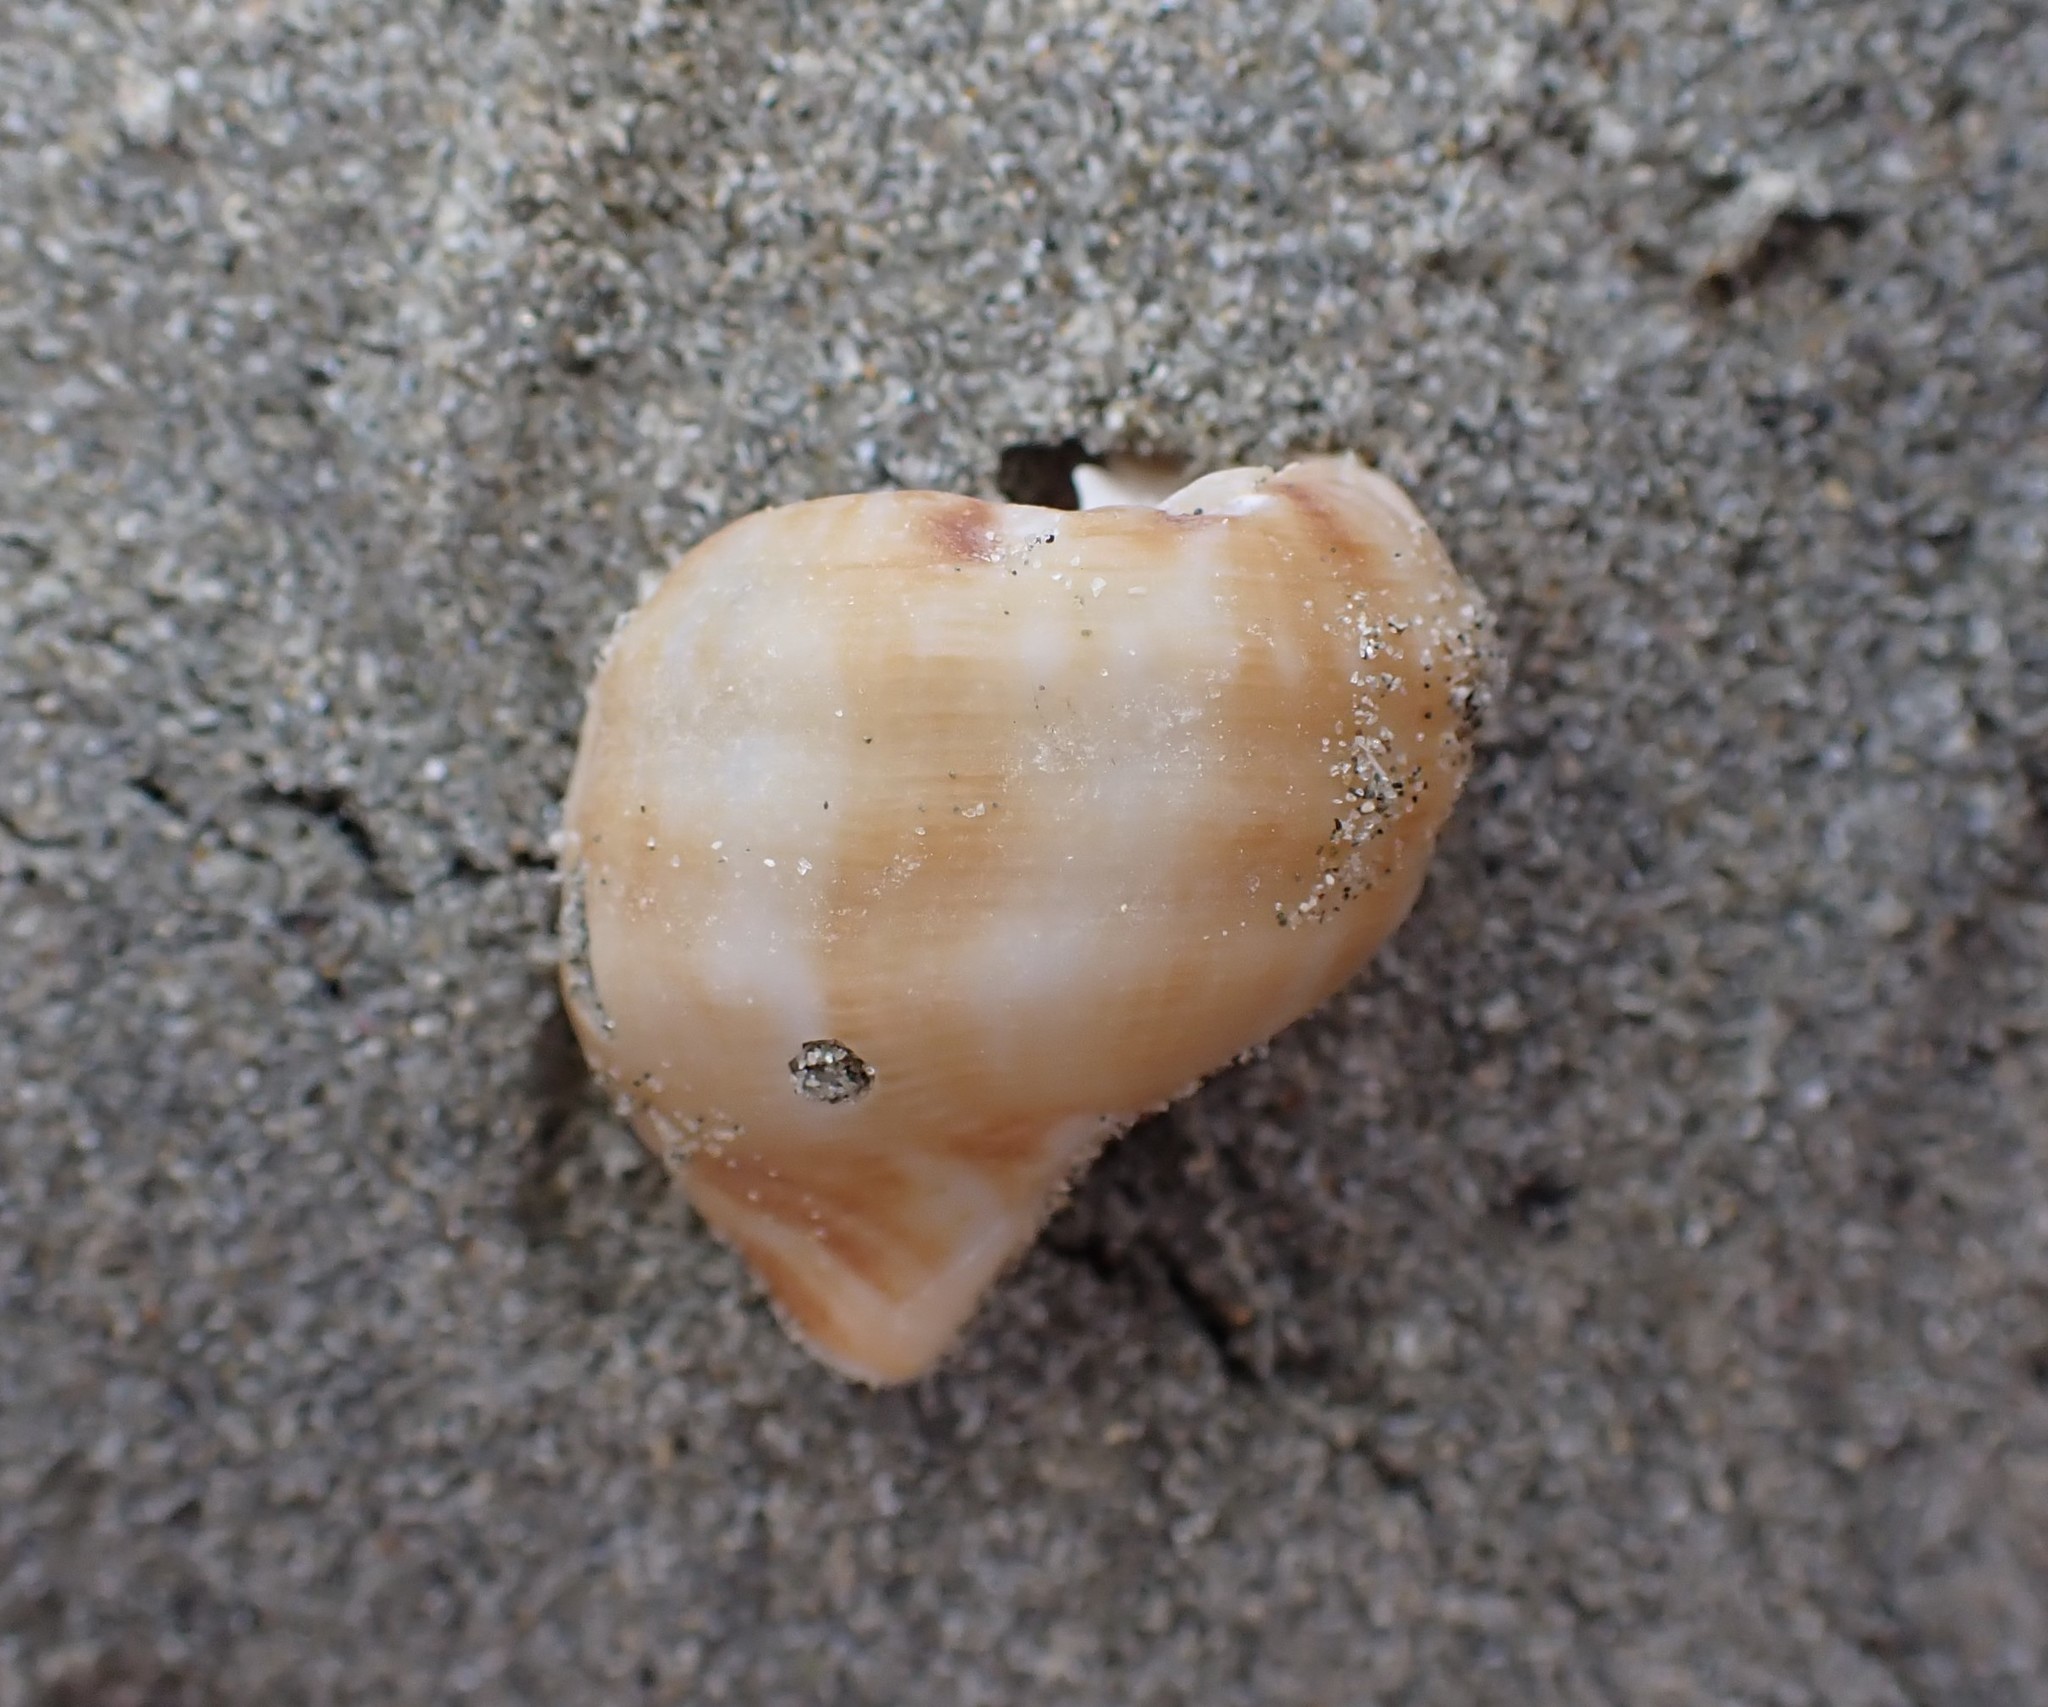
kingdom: Animalia
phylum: Mollusca
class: Gastropoda
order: Littorinimorpha
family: Struthiolariidae
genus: Pelicaria
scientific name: Pelicaria vermis
